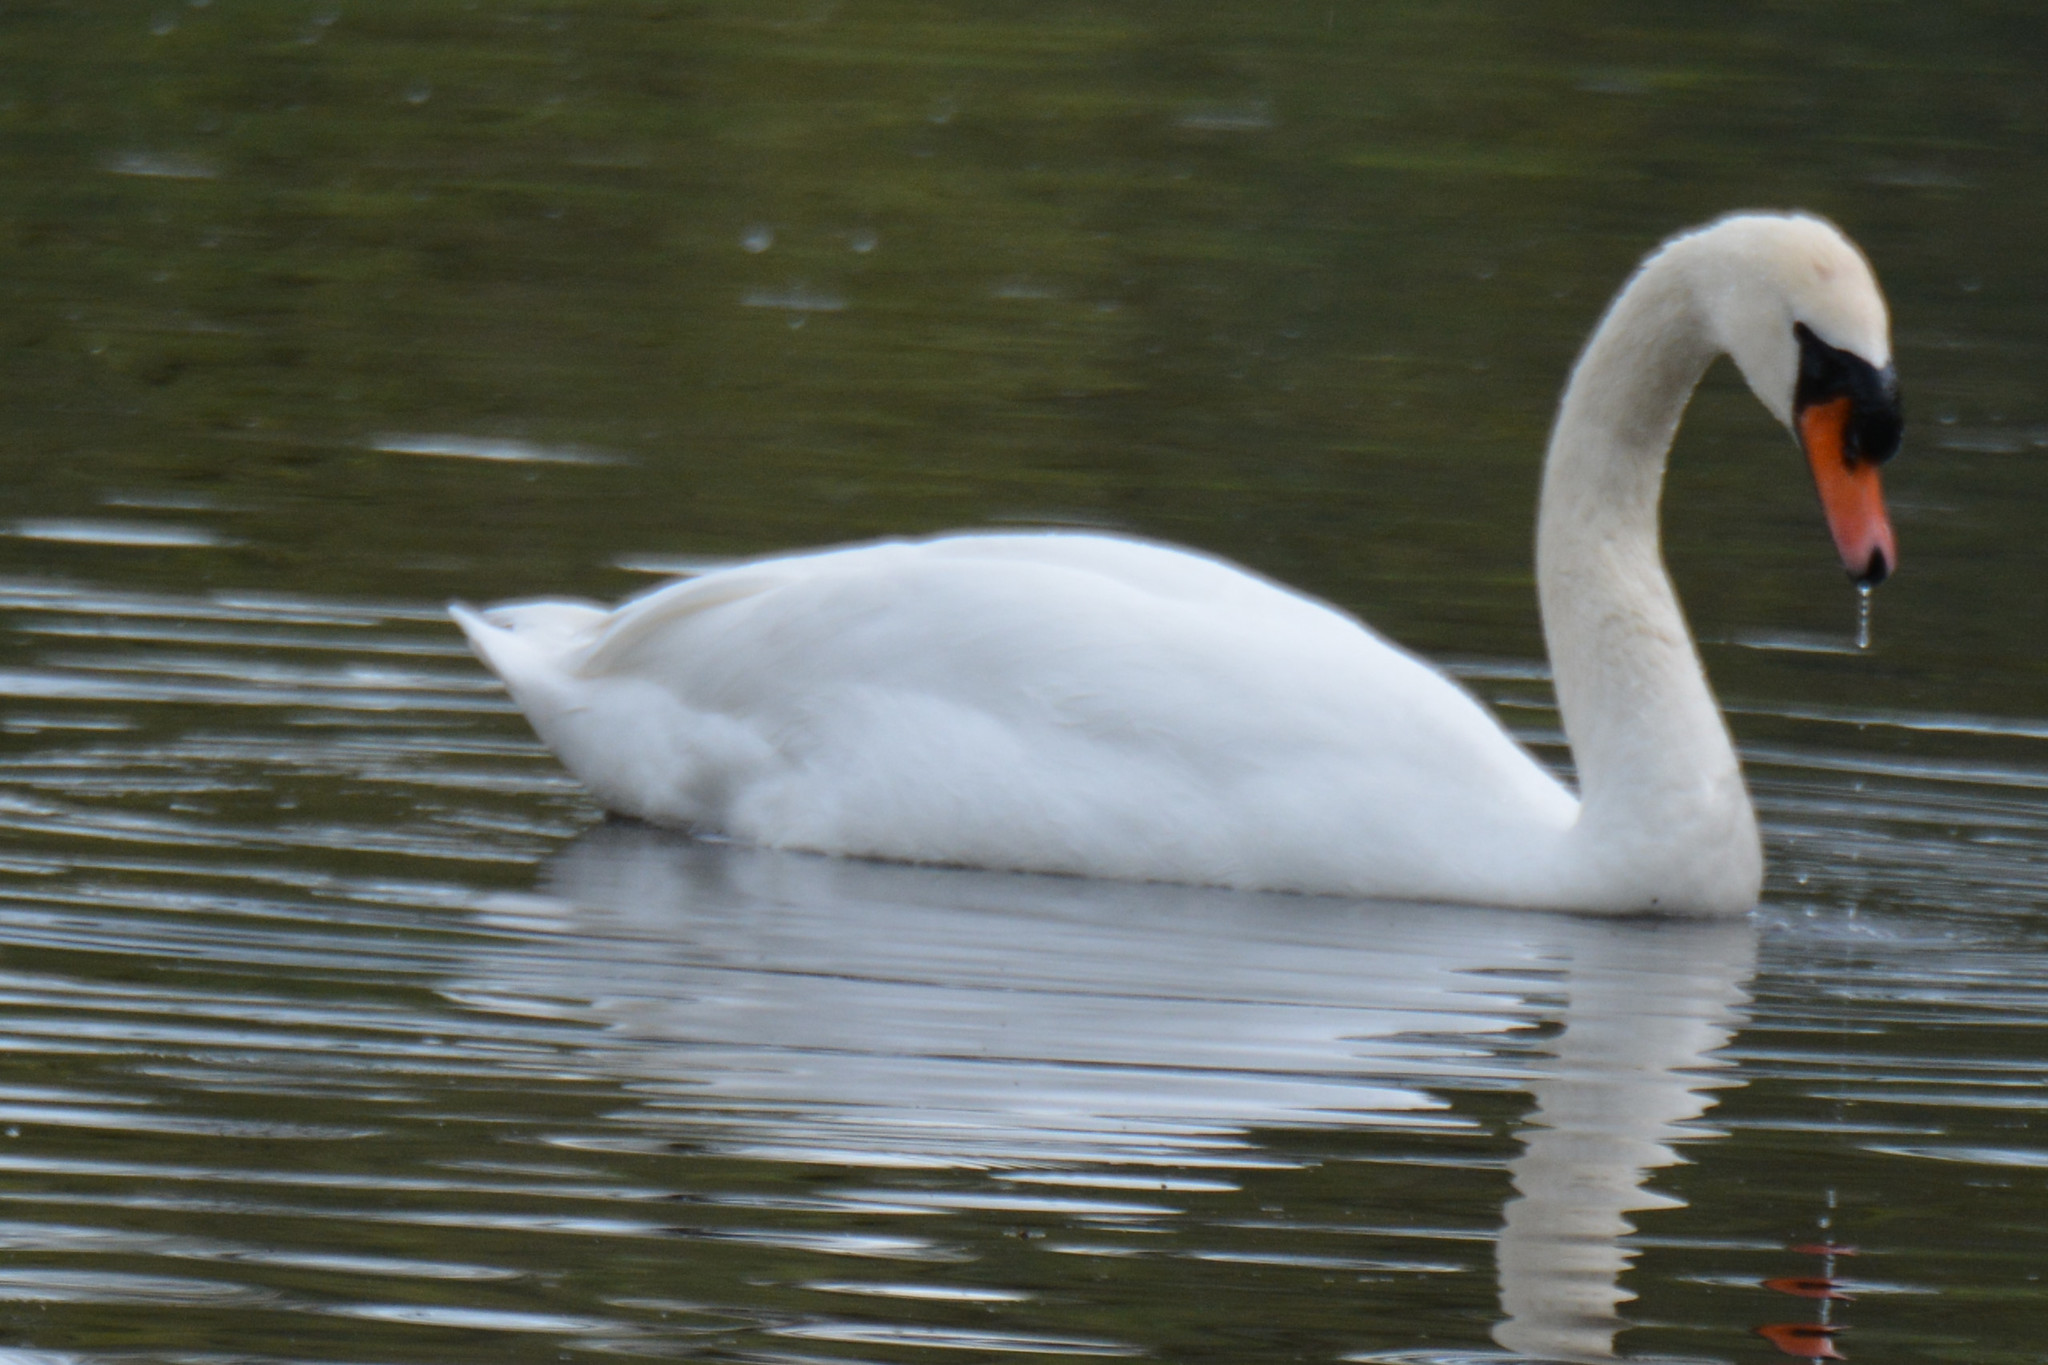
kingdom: Animalia
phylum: Chordata
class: Aves
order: Anseriformes
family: Anatidae
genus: Cygnus
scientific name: Cygnus olor
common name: Mute swan
